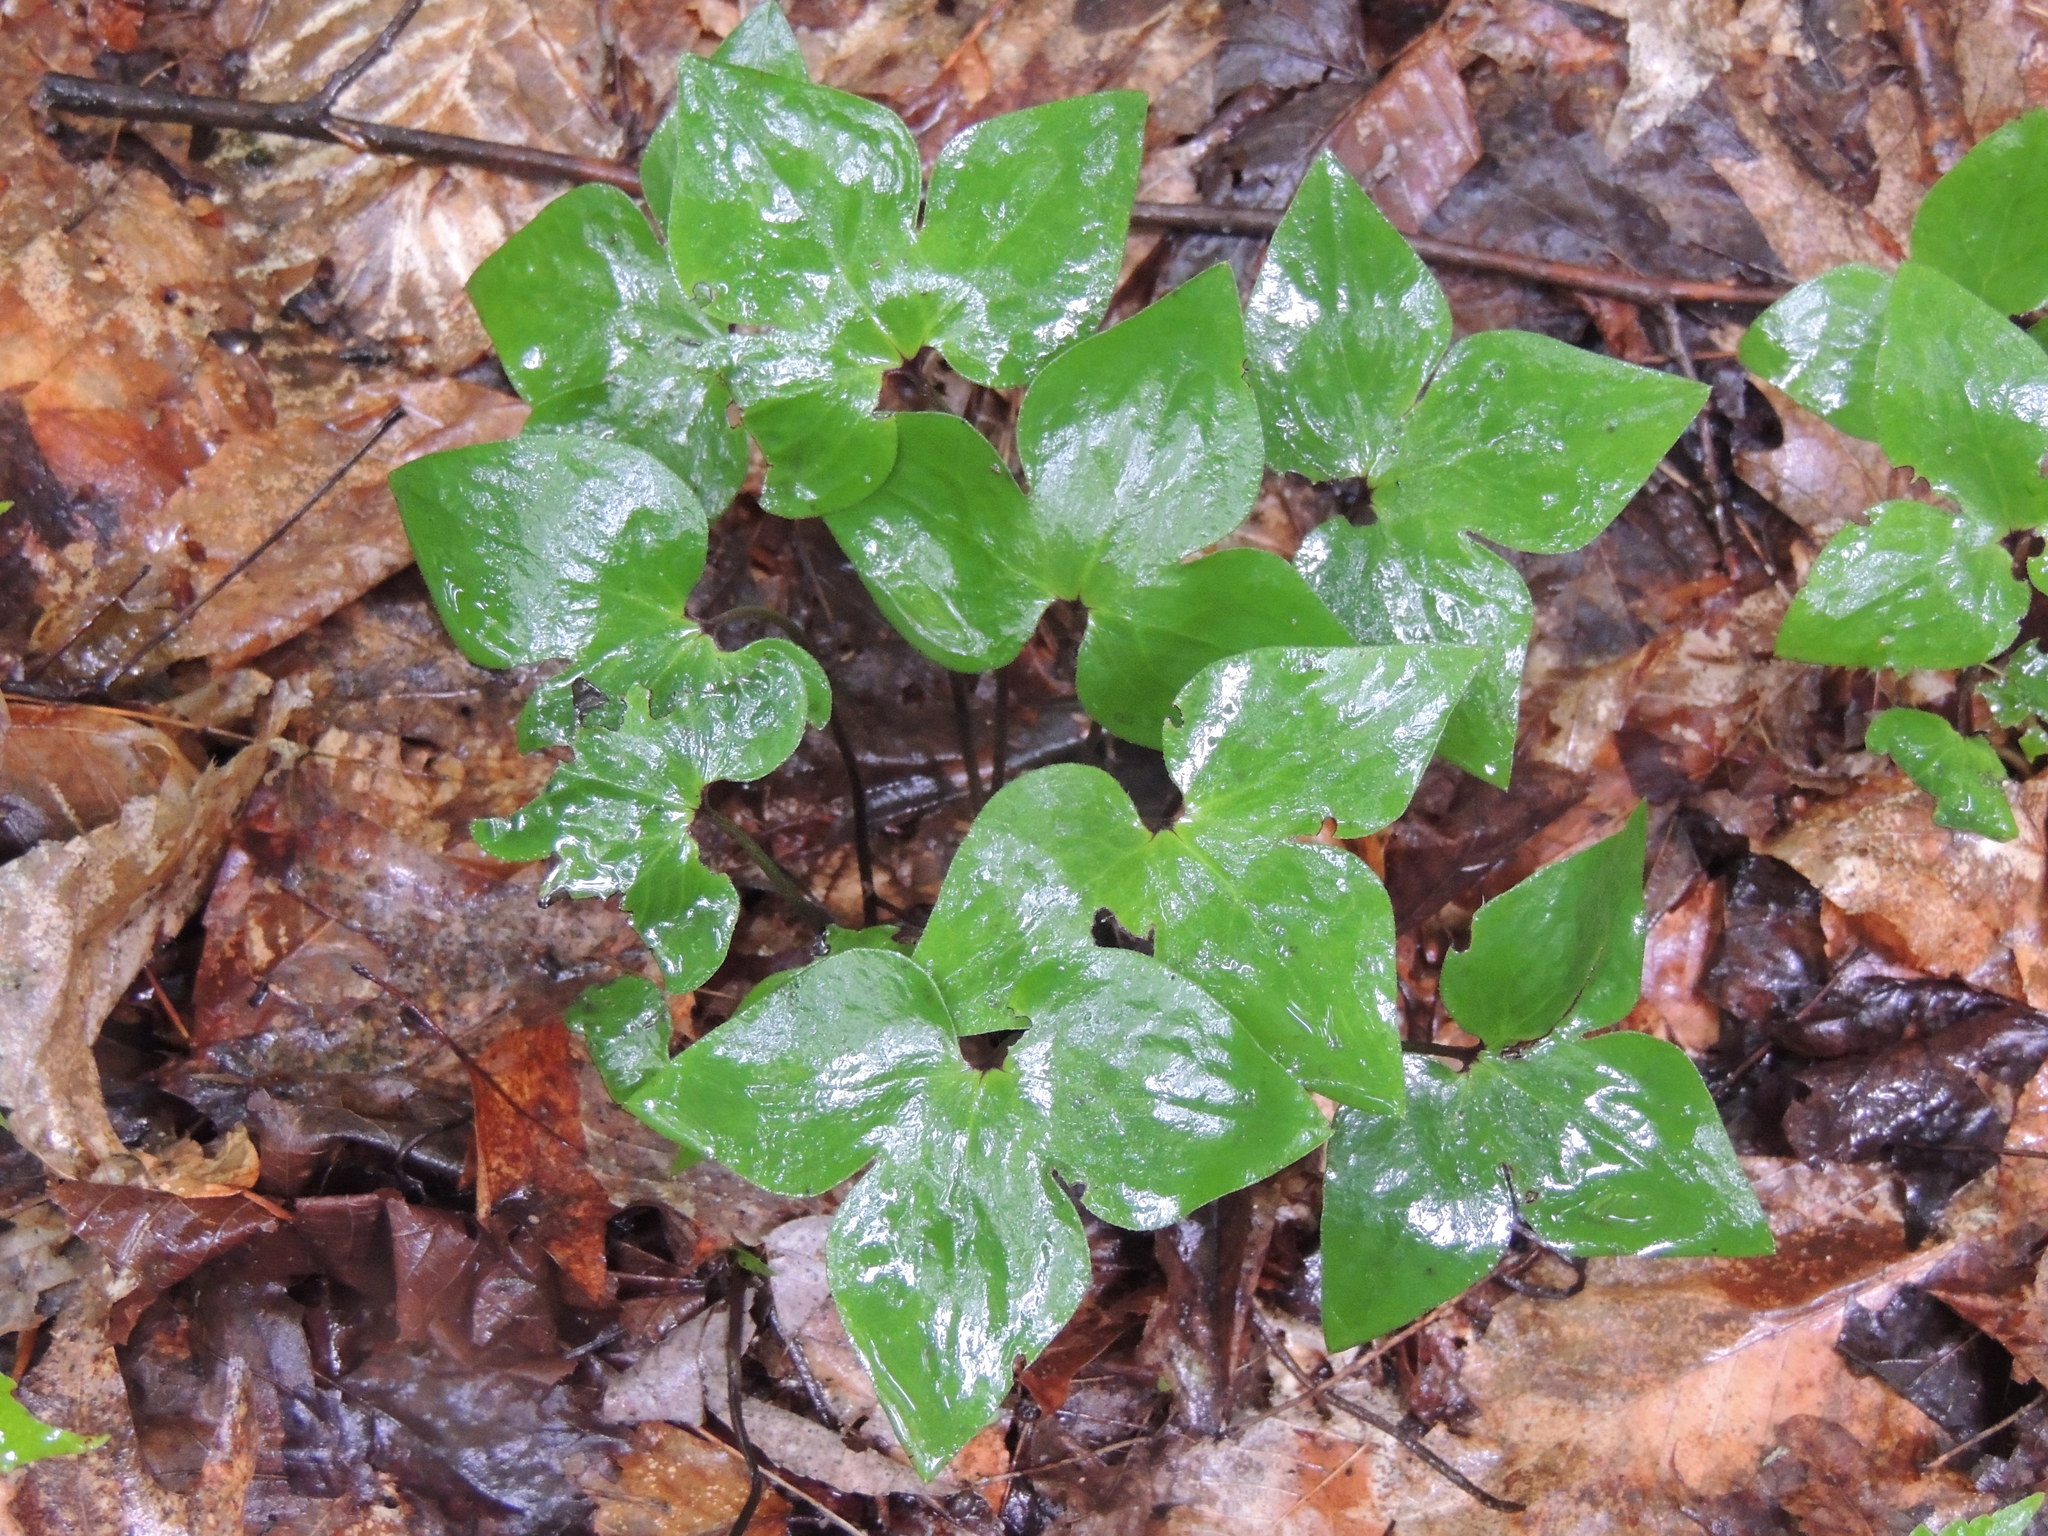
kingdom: Plantae
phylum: Tracheophyta
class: Magnoliopsida
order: Ranunculales
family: Ranunculaceae
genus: Hepatica
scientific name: Hepatica acutiloba
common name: Sharp-lobed hepatica
